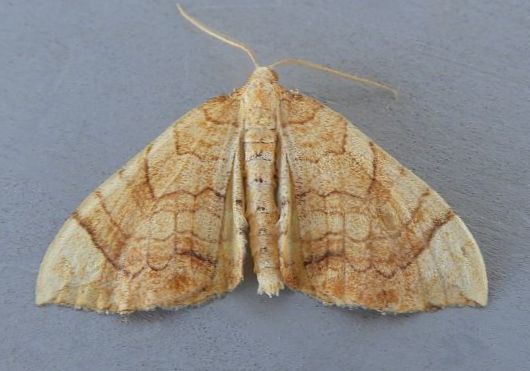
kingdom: Animalia
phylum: Arthropoda
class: Insecta
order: Lepidoptera
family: Geometridae
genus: Eulithis
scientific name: Eulithis luteolata
